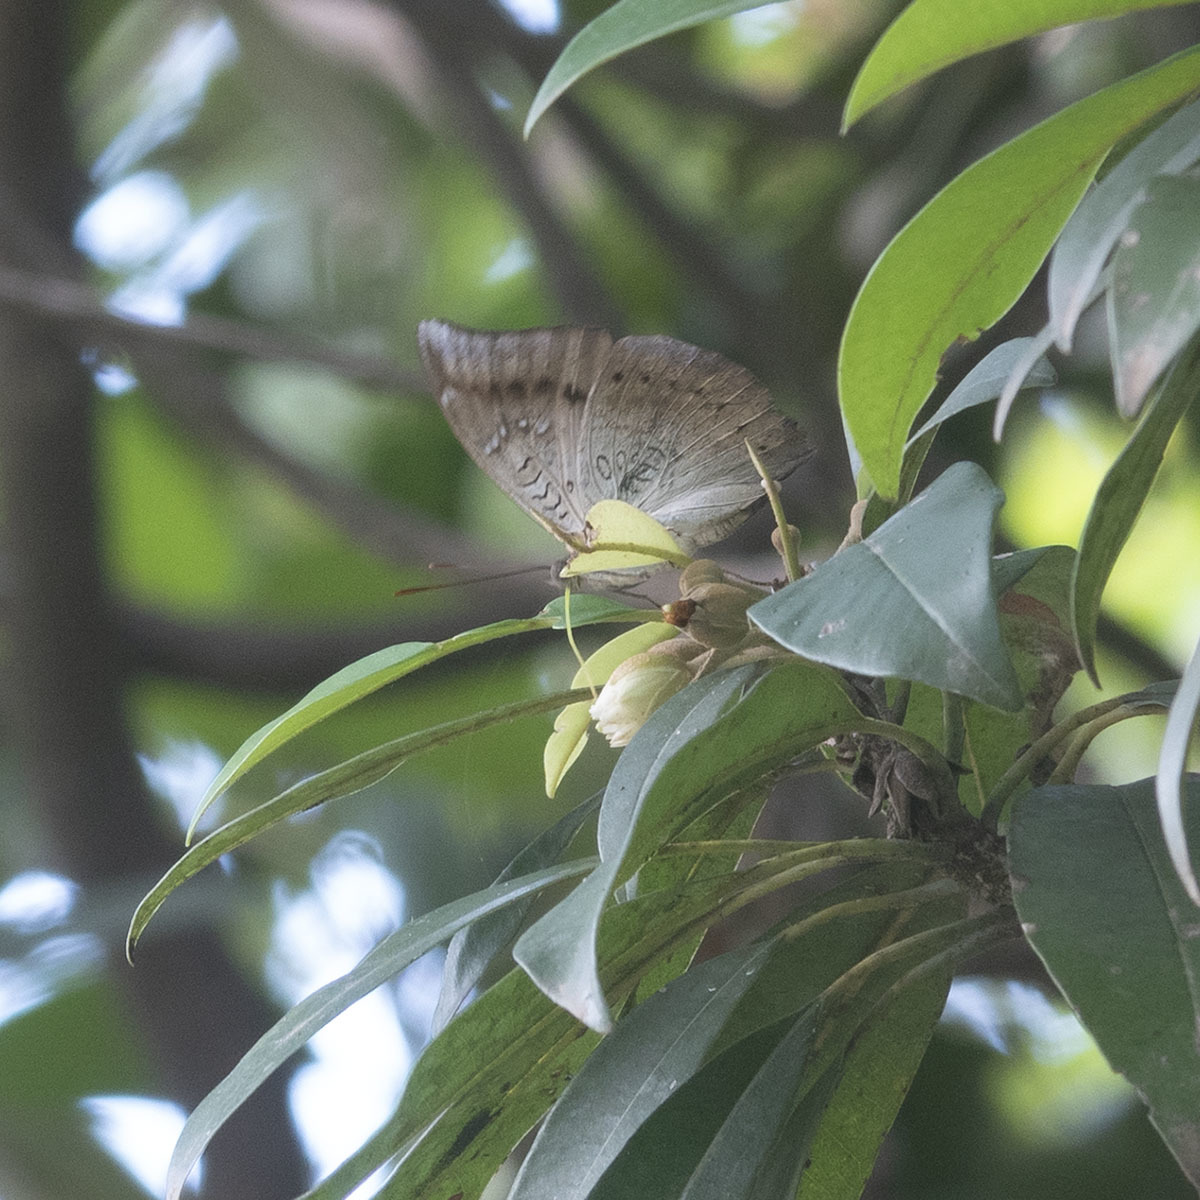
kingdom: Animalia
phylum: Arthropoda
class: Insecta
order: Lepidoptera
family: Nymphalidae
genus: Euthalia
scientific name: Euthalia aconthea
